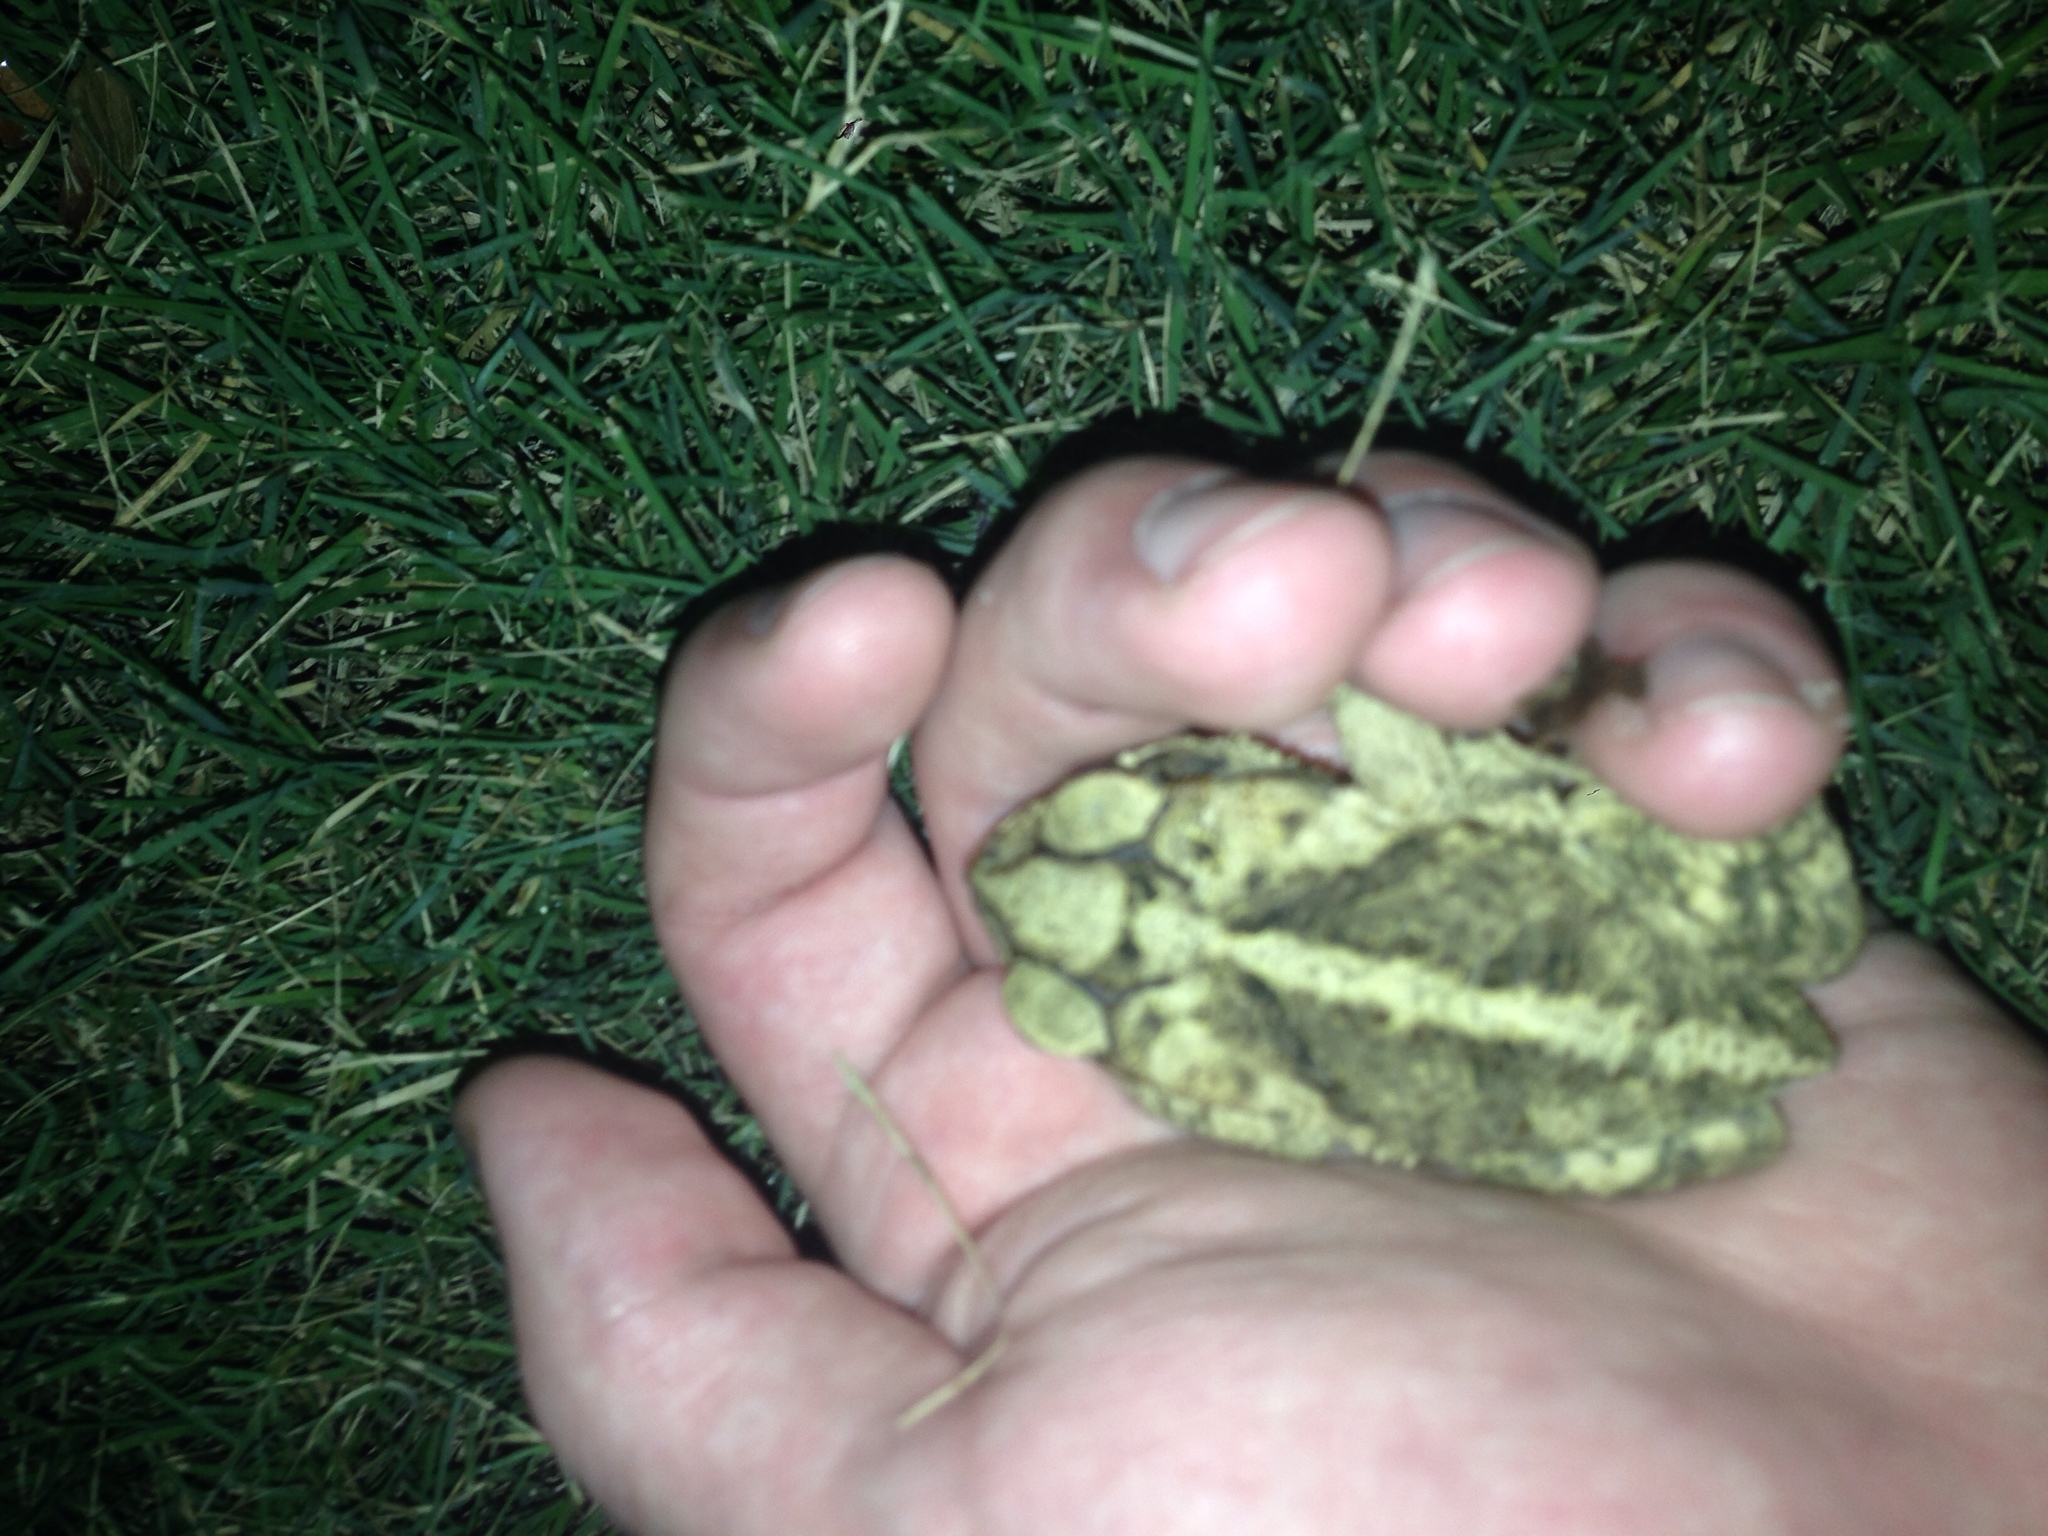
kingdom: Animalia
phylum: Chordata
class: Amphibia
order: Anura
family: Bufonidae
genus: Incilius
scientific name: Incilius nebulifer
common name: Gulf coast toad
